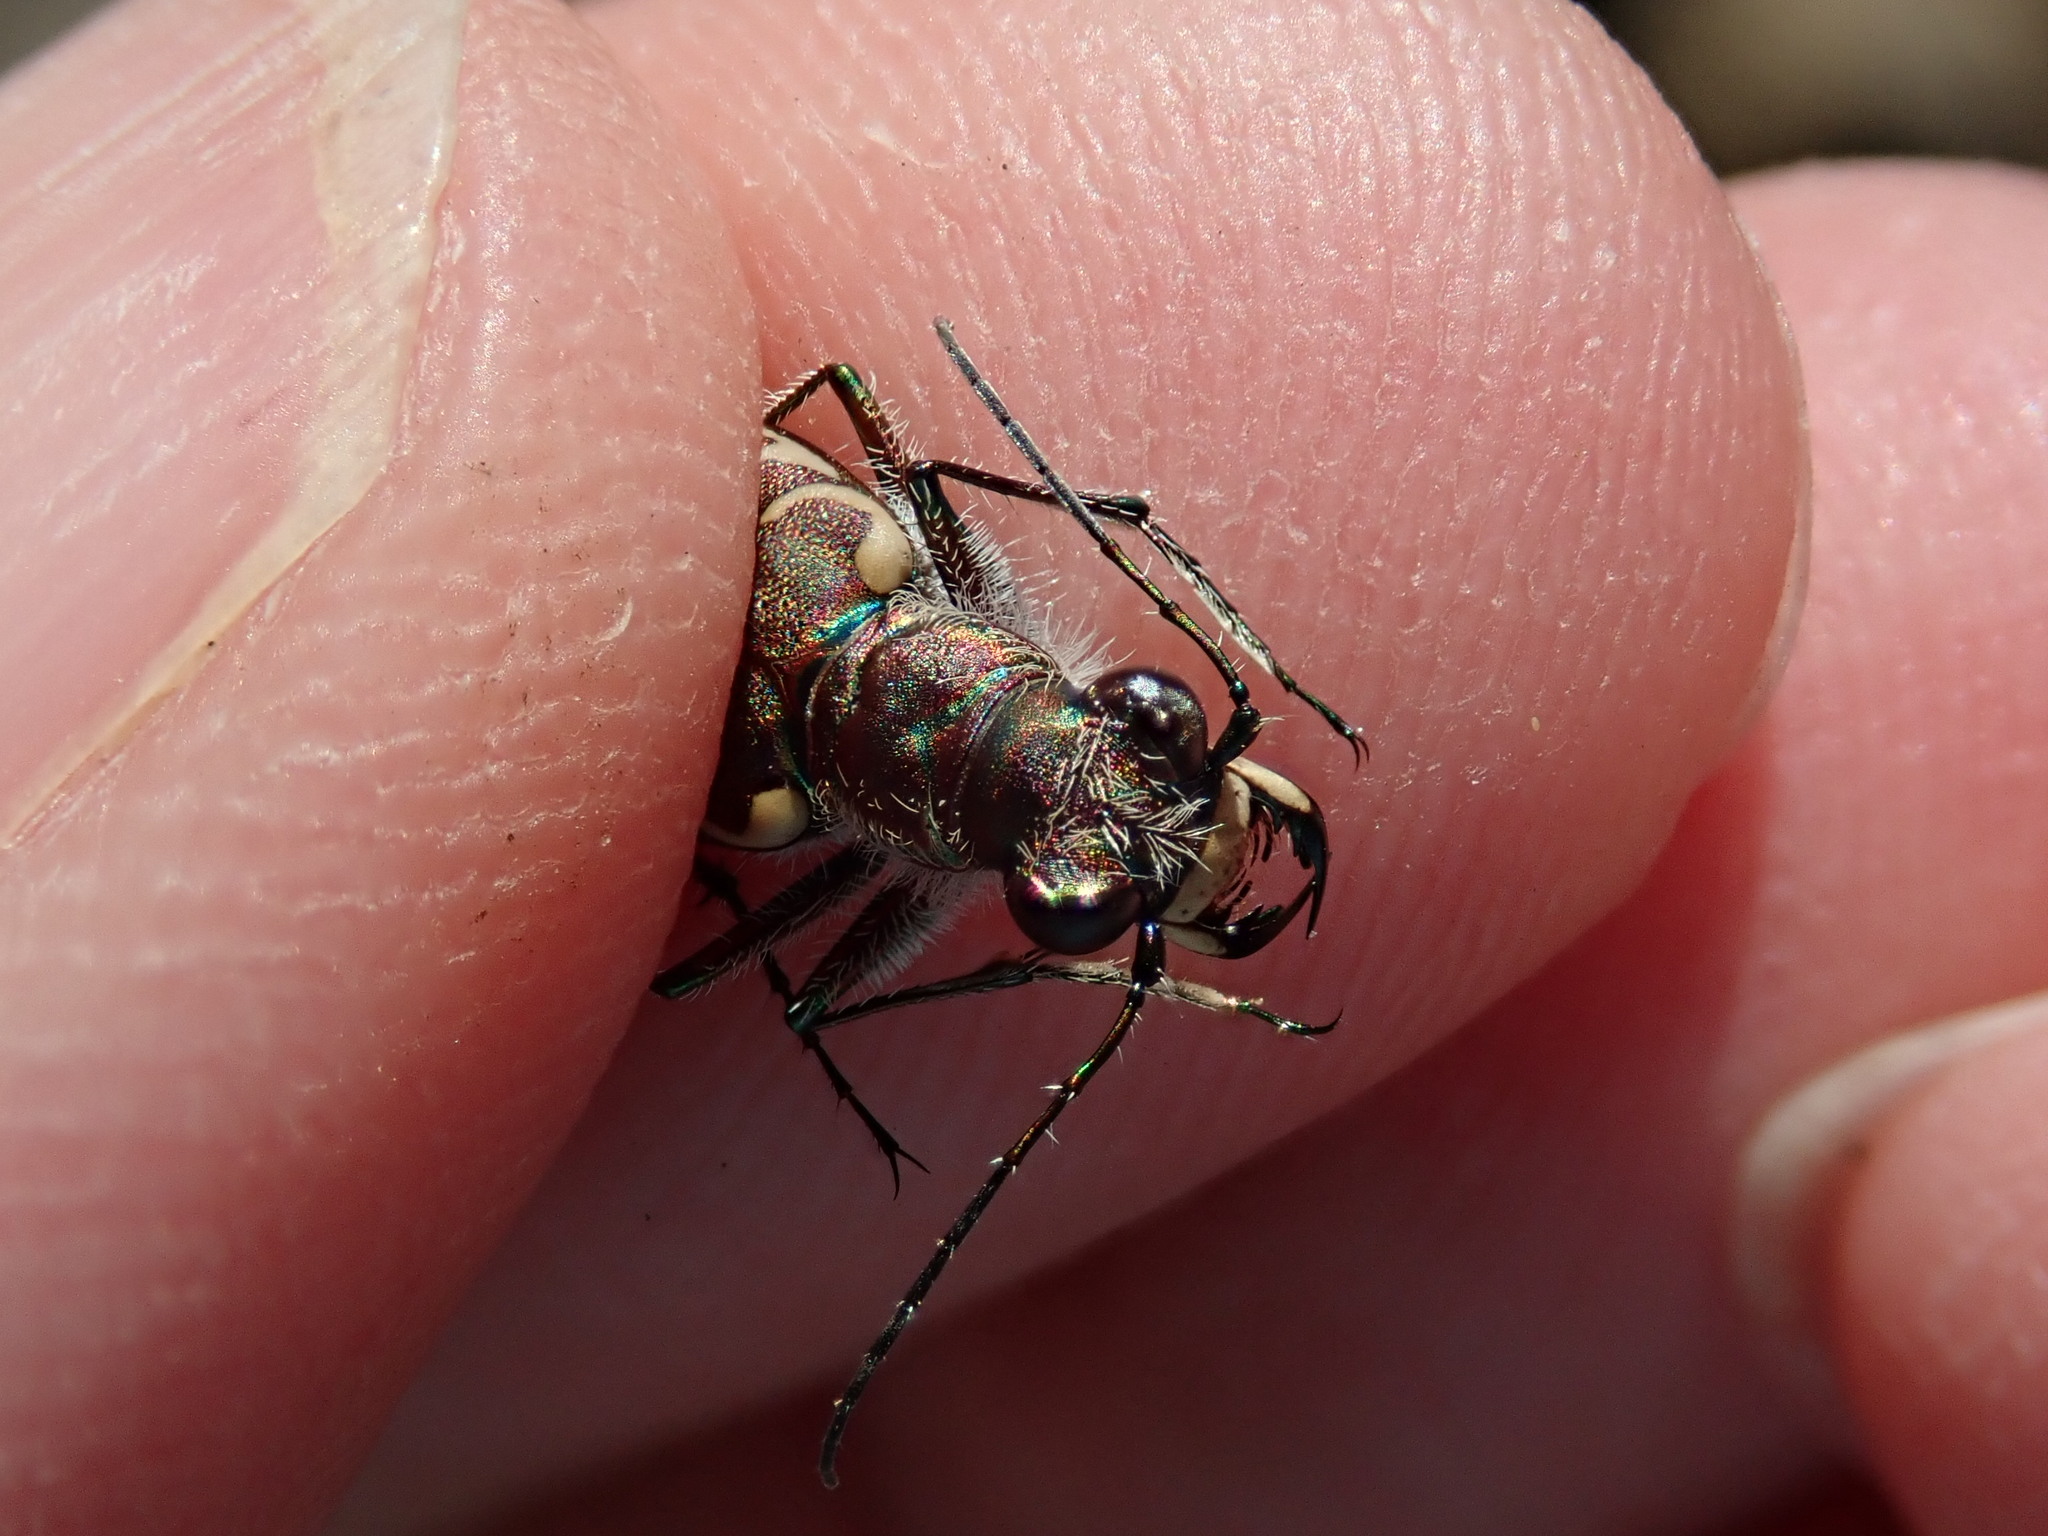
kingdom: Animalia
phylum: Arthropoda
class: Insecta
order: Coleoptera
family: Carabidae
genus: Cicindela
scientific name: Cicindela repanda
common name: Bronzed tiger beetle
